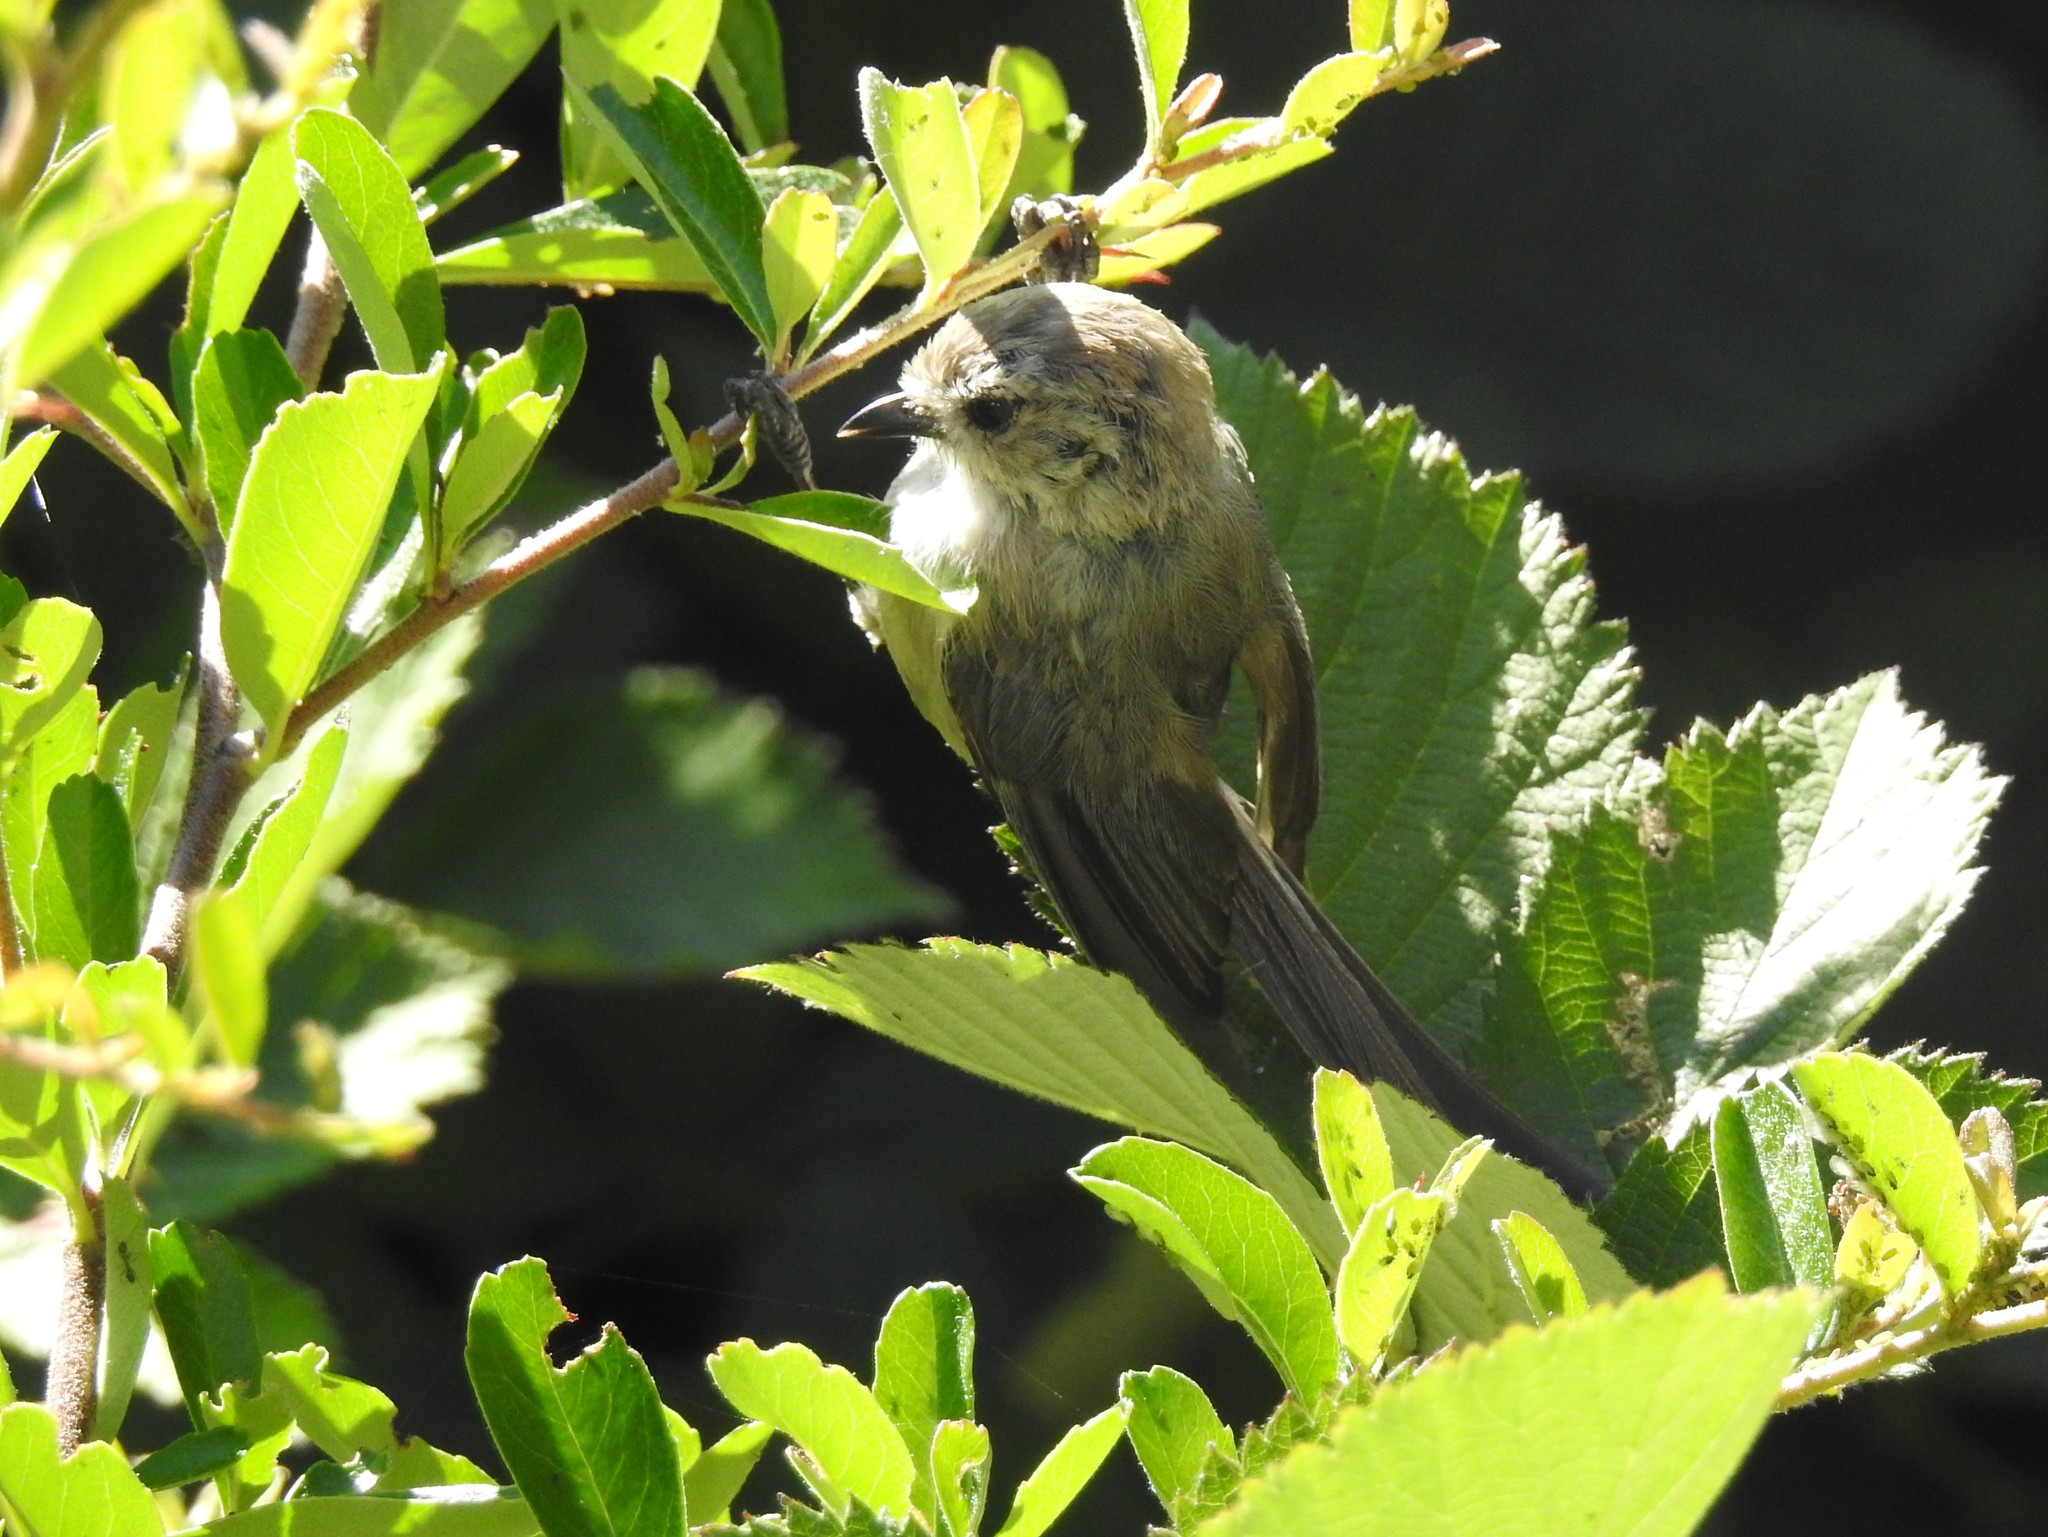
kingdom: Animalia
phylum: Chordata
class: Aves
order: Passeriformes
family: Aegithalidae
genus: Psaltriparus
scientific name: Psaltriparus minimus
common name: American bushtit
